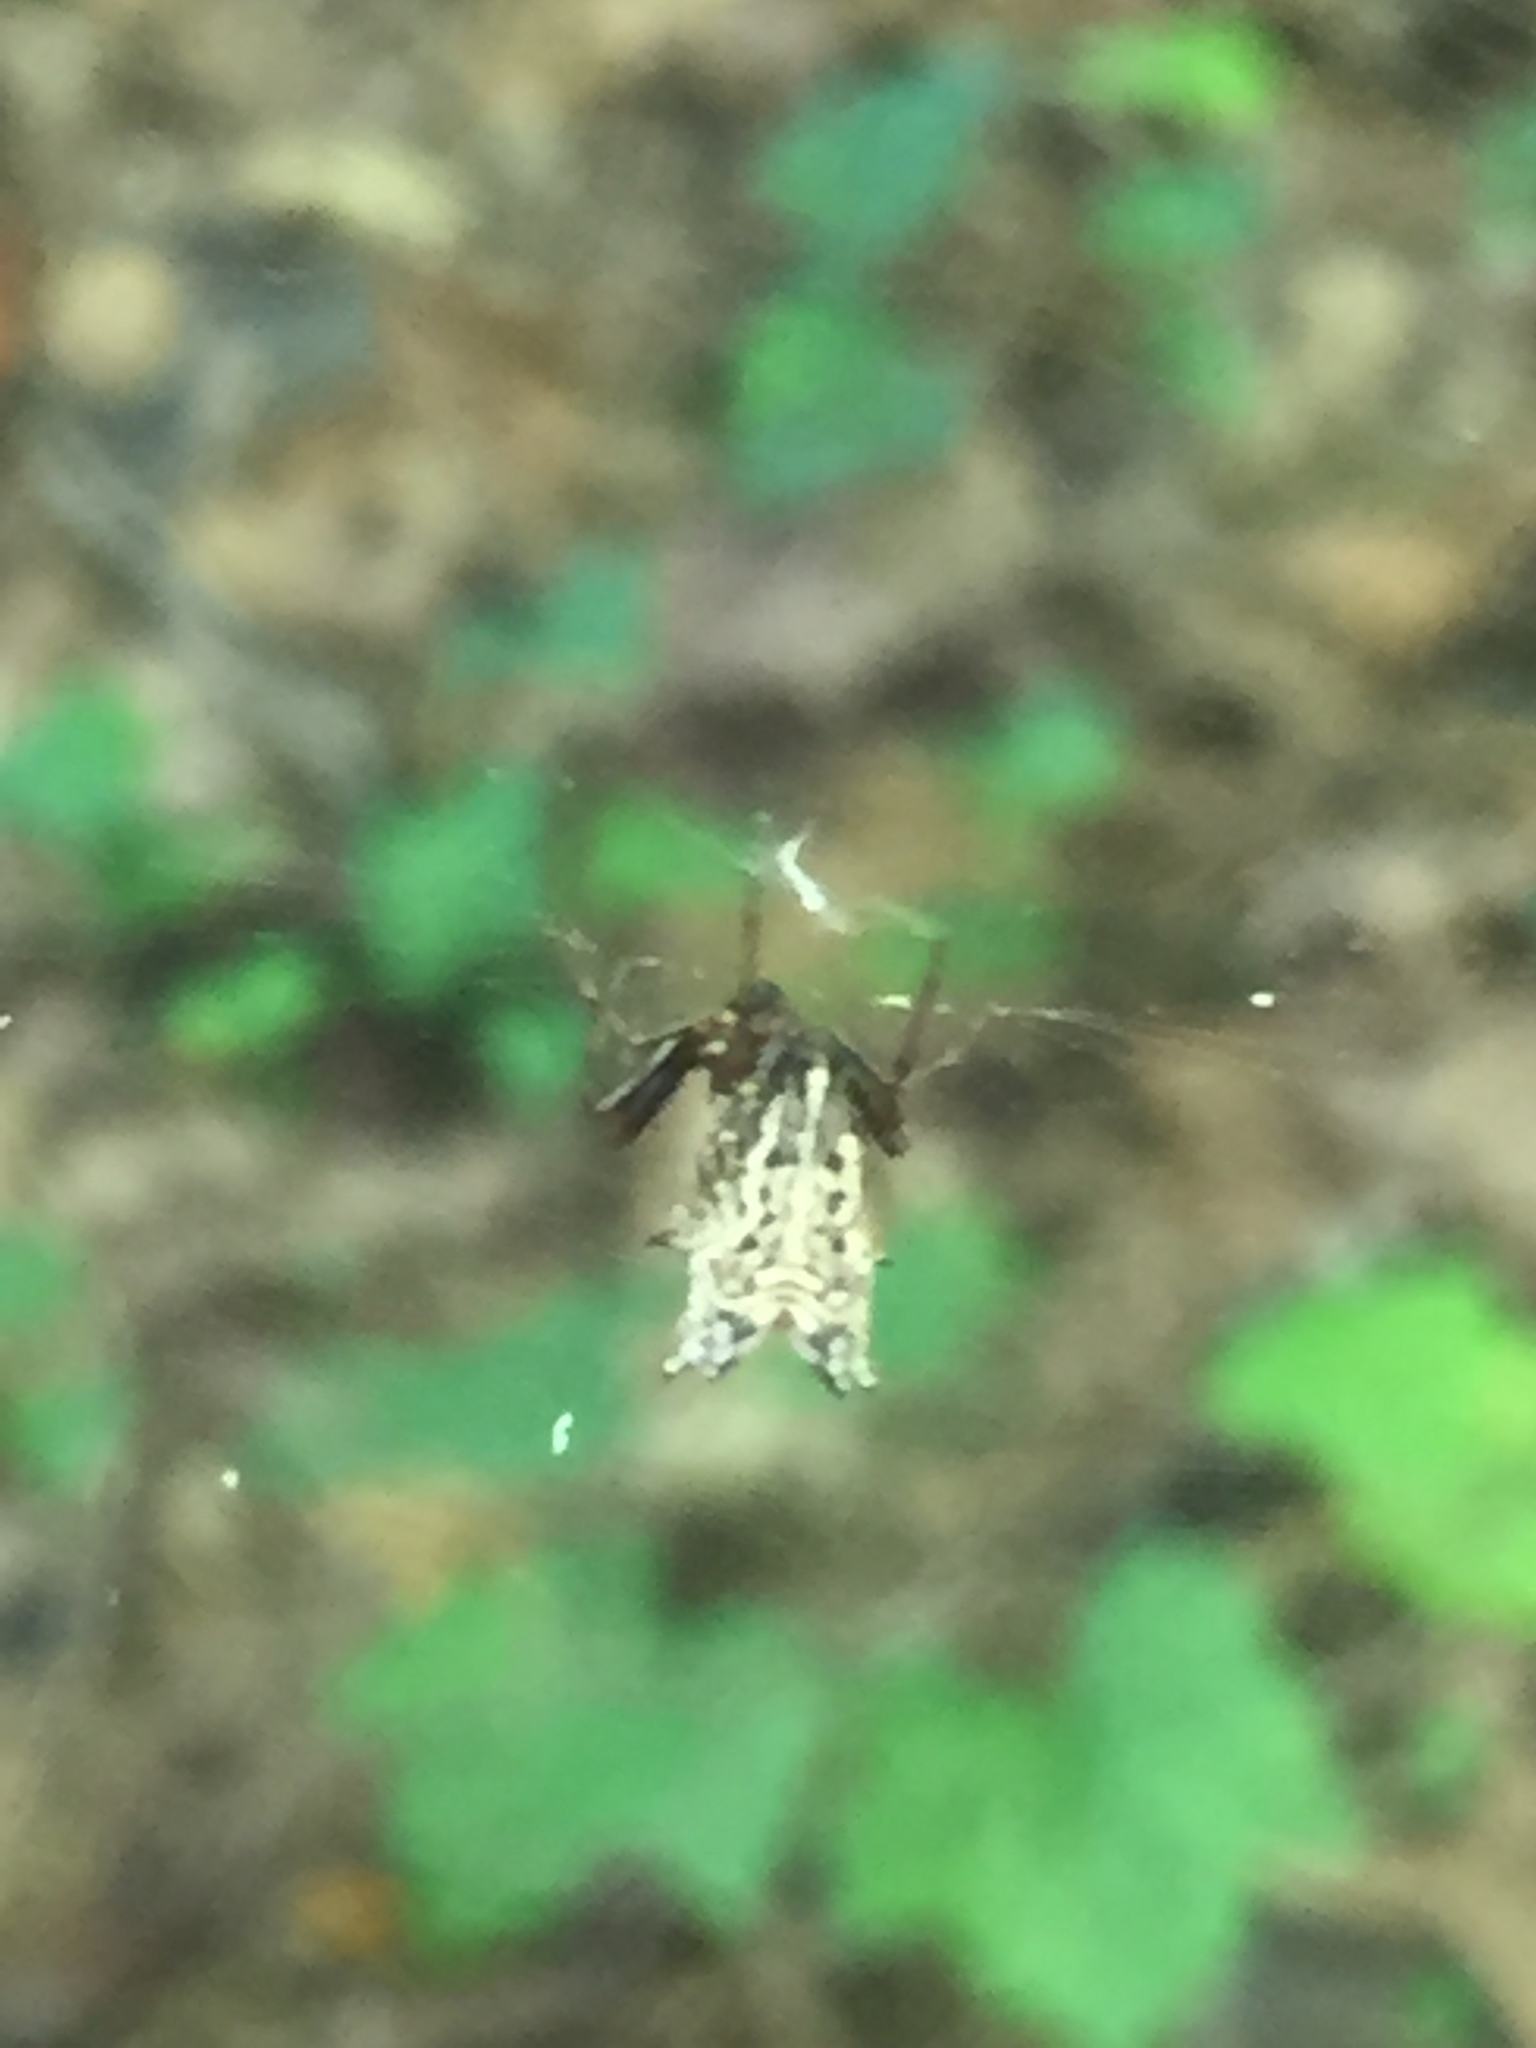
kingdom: Animalia
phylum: Arthropoda
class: Arachnida
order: Araneae
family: Araneidae
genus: Micrathena
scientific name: Micrathena gracilis
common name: Orb weavers
